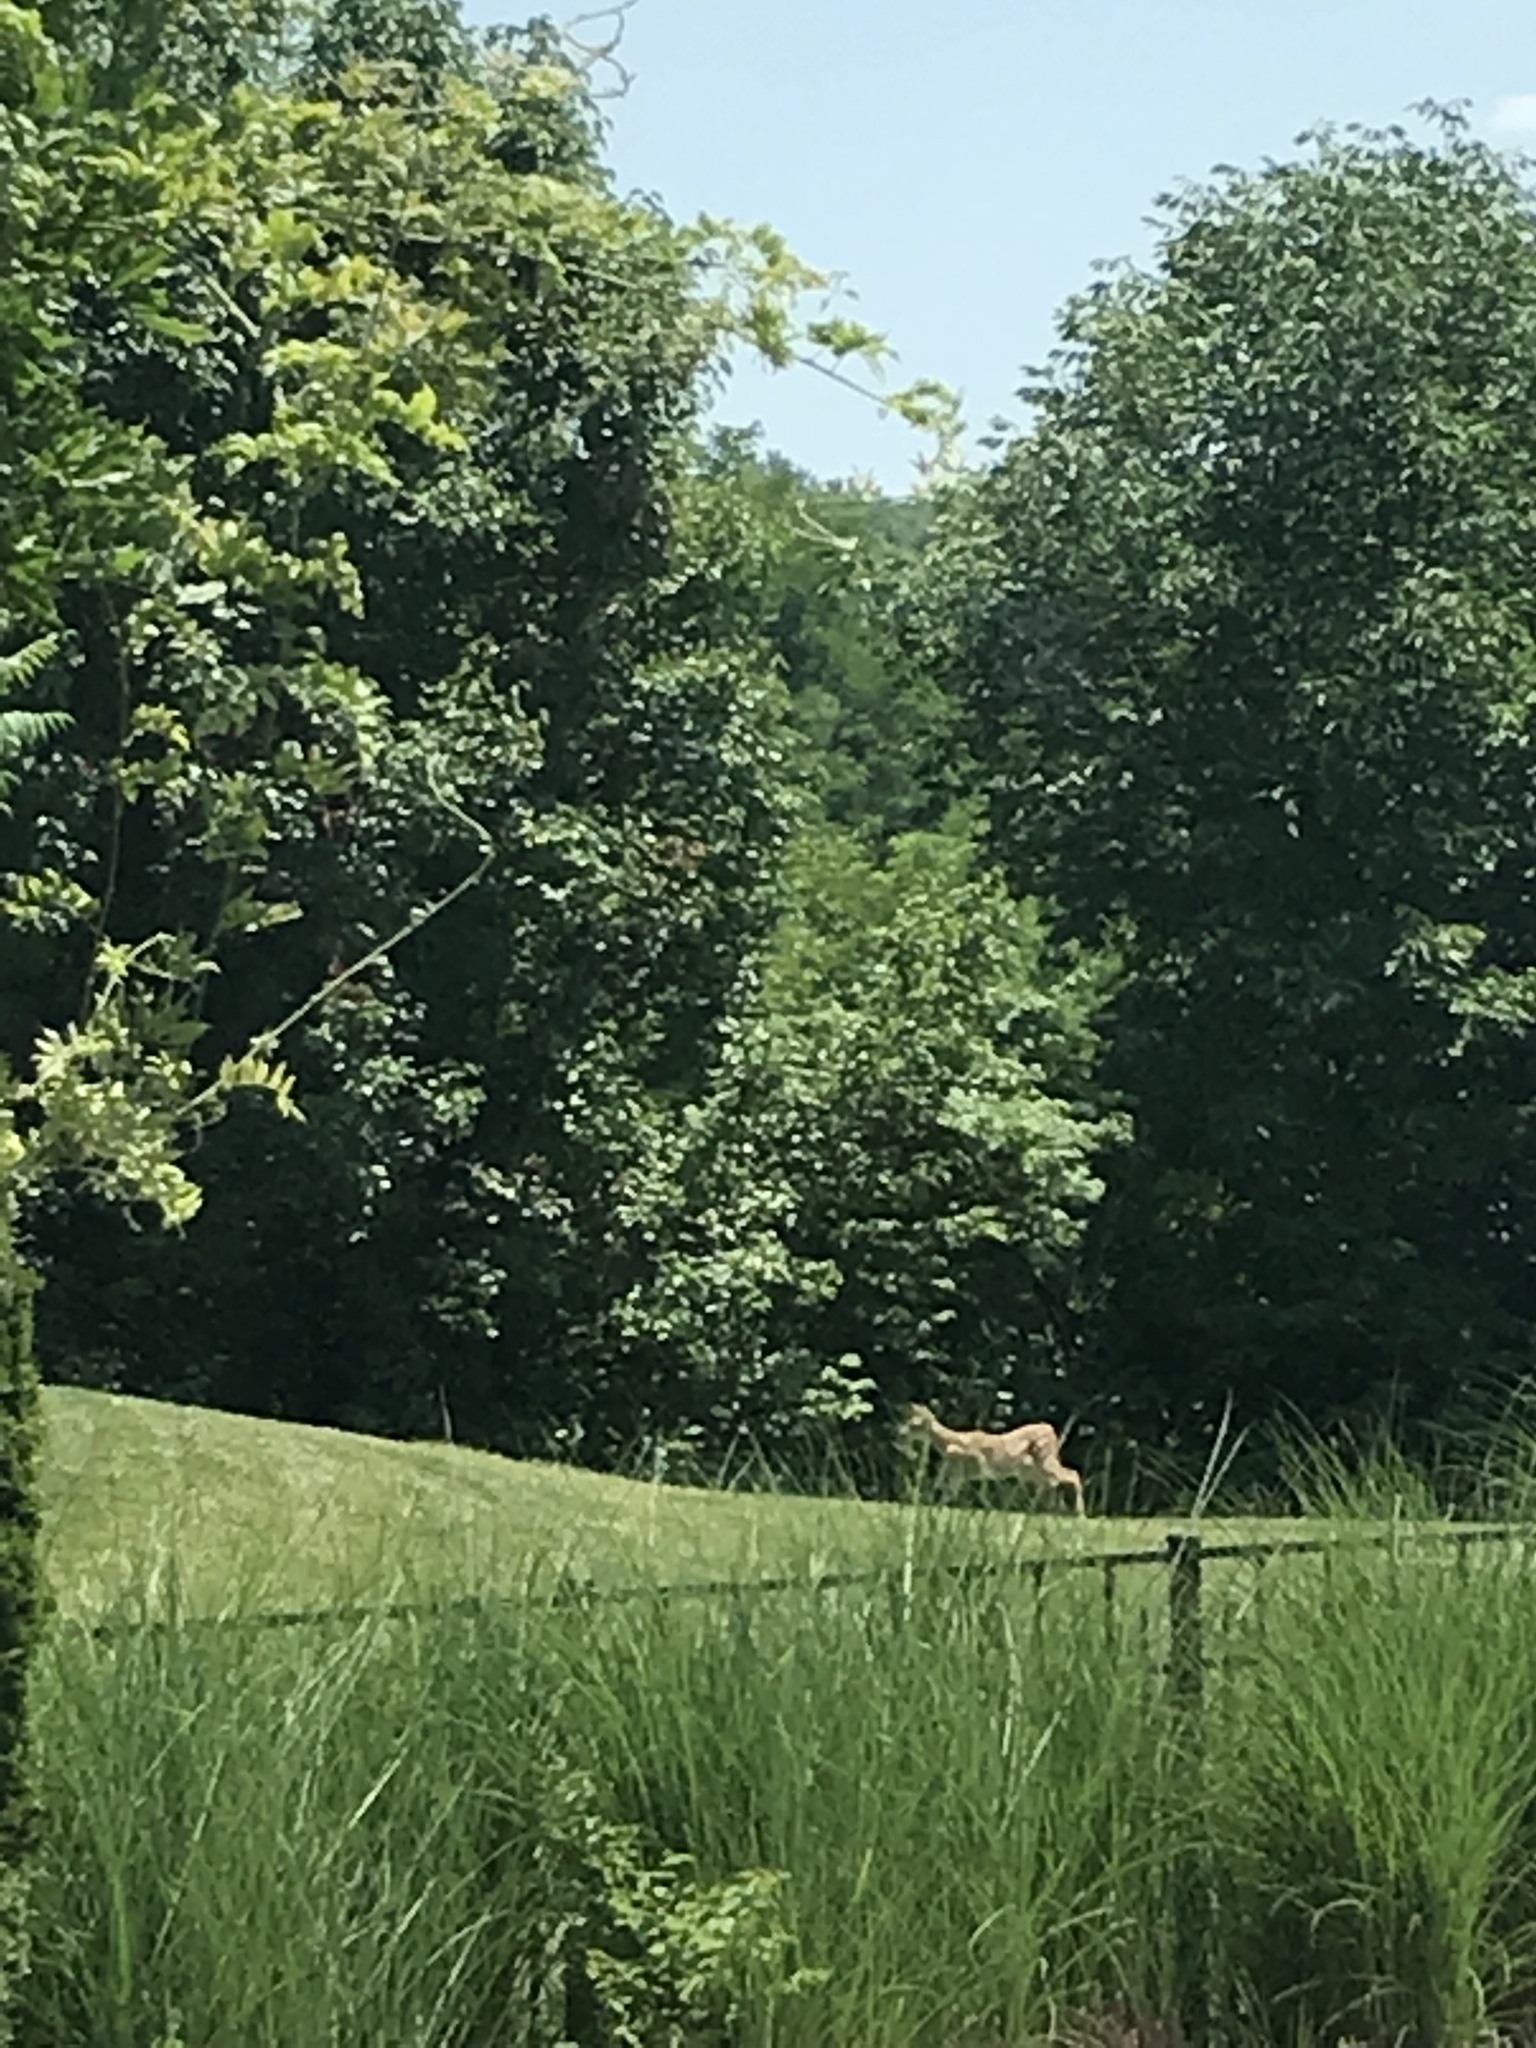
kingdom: Animalia
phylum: Chordata
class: Mammalia
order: Artiodactyla
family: Cervidae
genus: Odocoileus
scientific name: Odocoileus virginianus
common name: White-tailed deer
